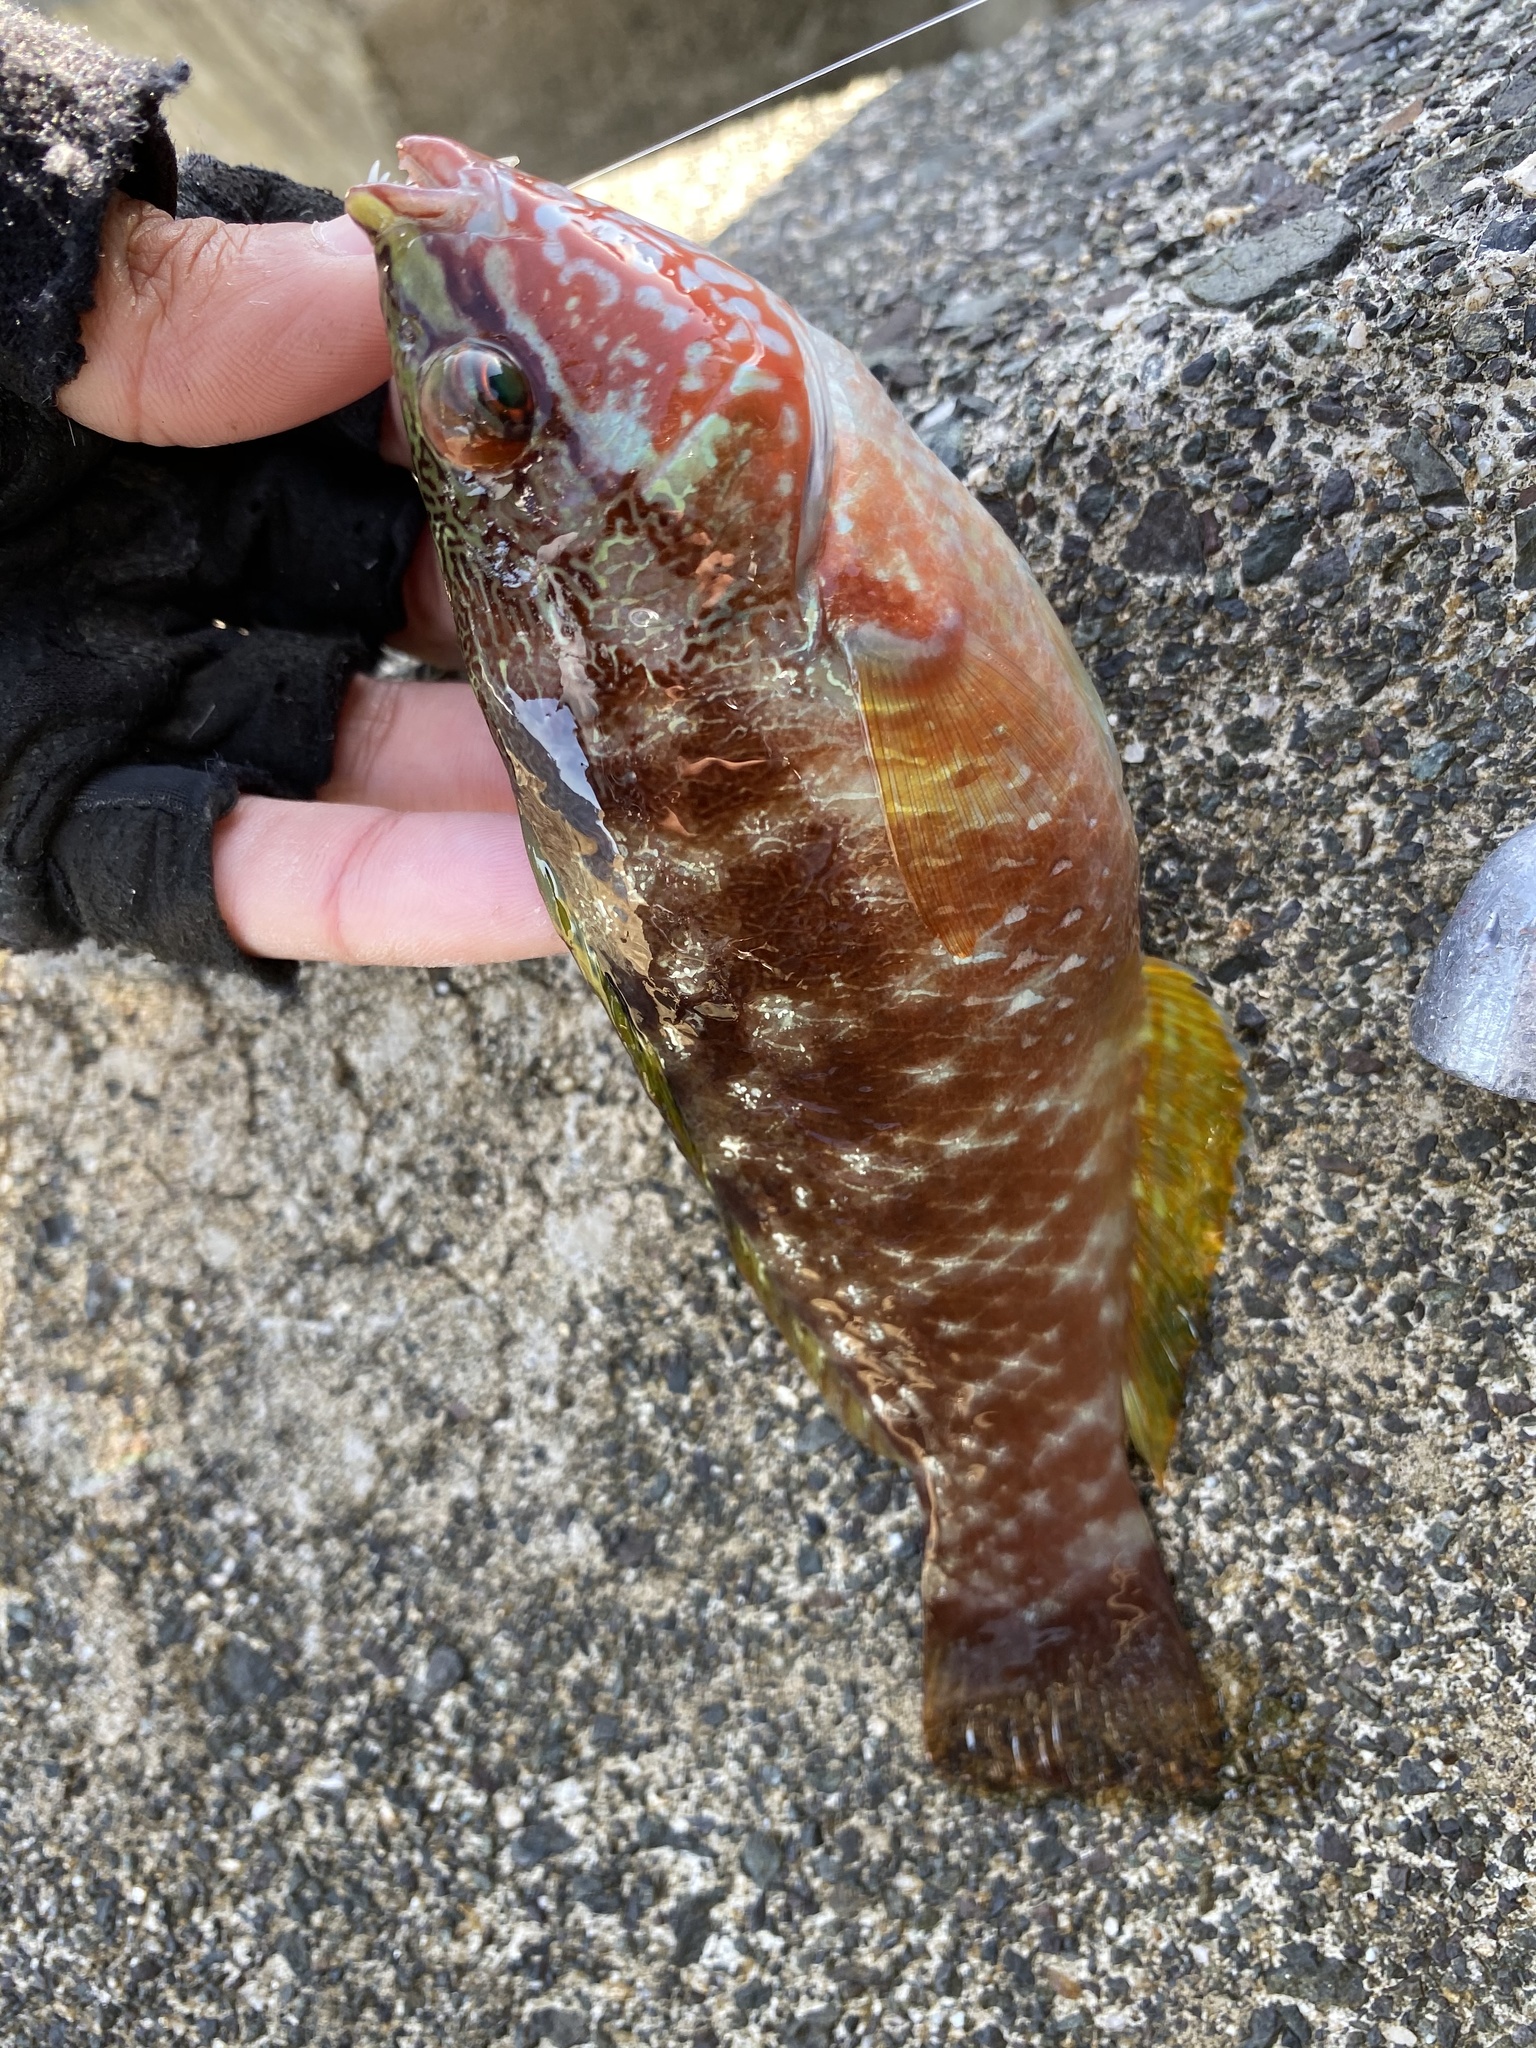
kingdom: Animalia
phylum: Chordata
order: Perciformes
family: Labridae
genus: Pseudolabrus
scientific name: Pseudolabrus sieboldi
